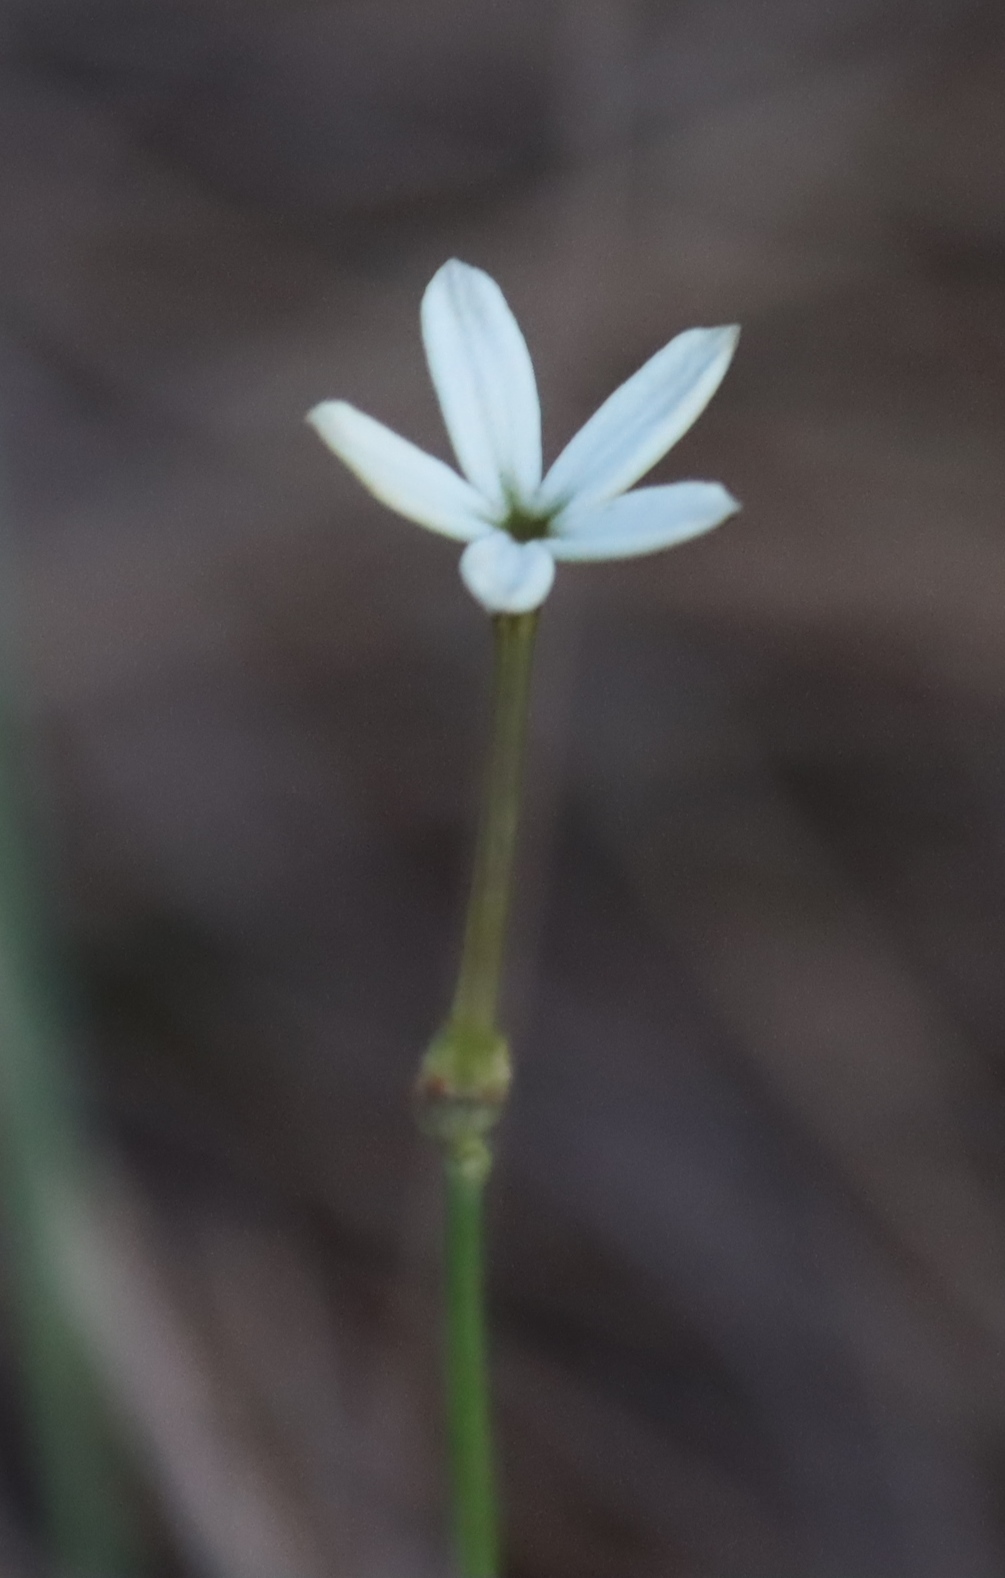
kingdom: Plantae
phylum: Tracheophyta
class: Magnoliopsida
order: Gentianales
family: Rubiaceae
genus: Kohautia
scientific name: Kohautia amatymbica
